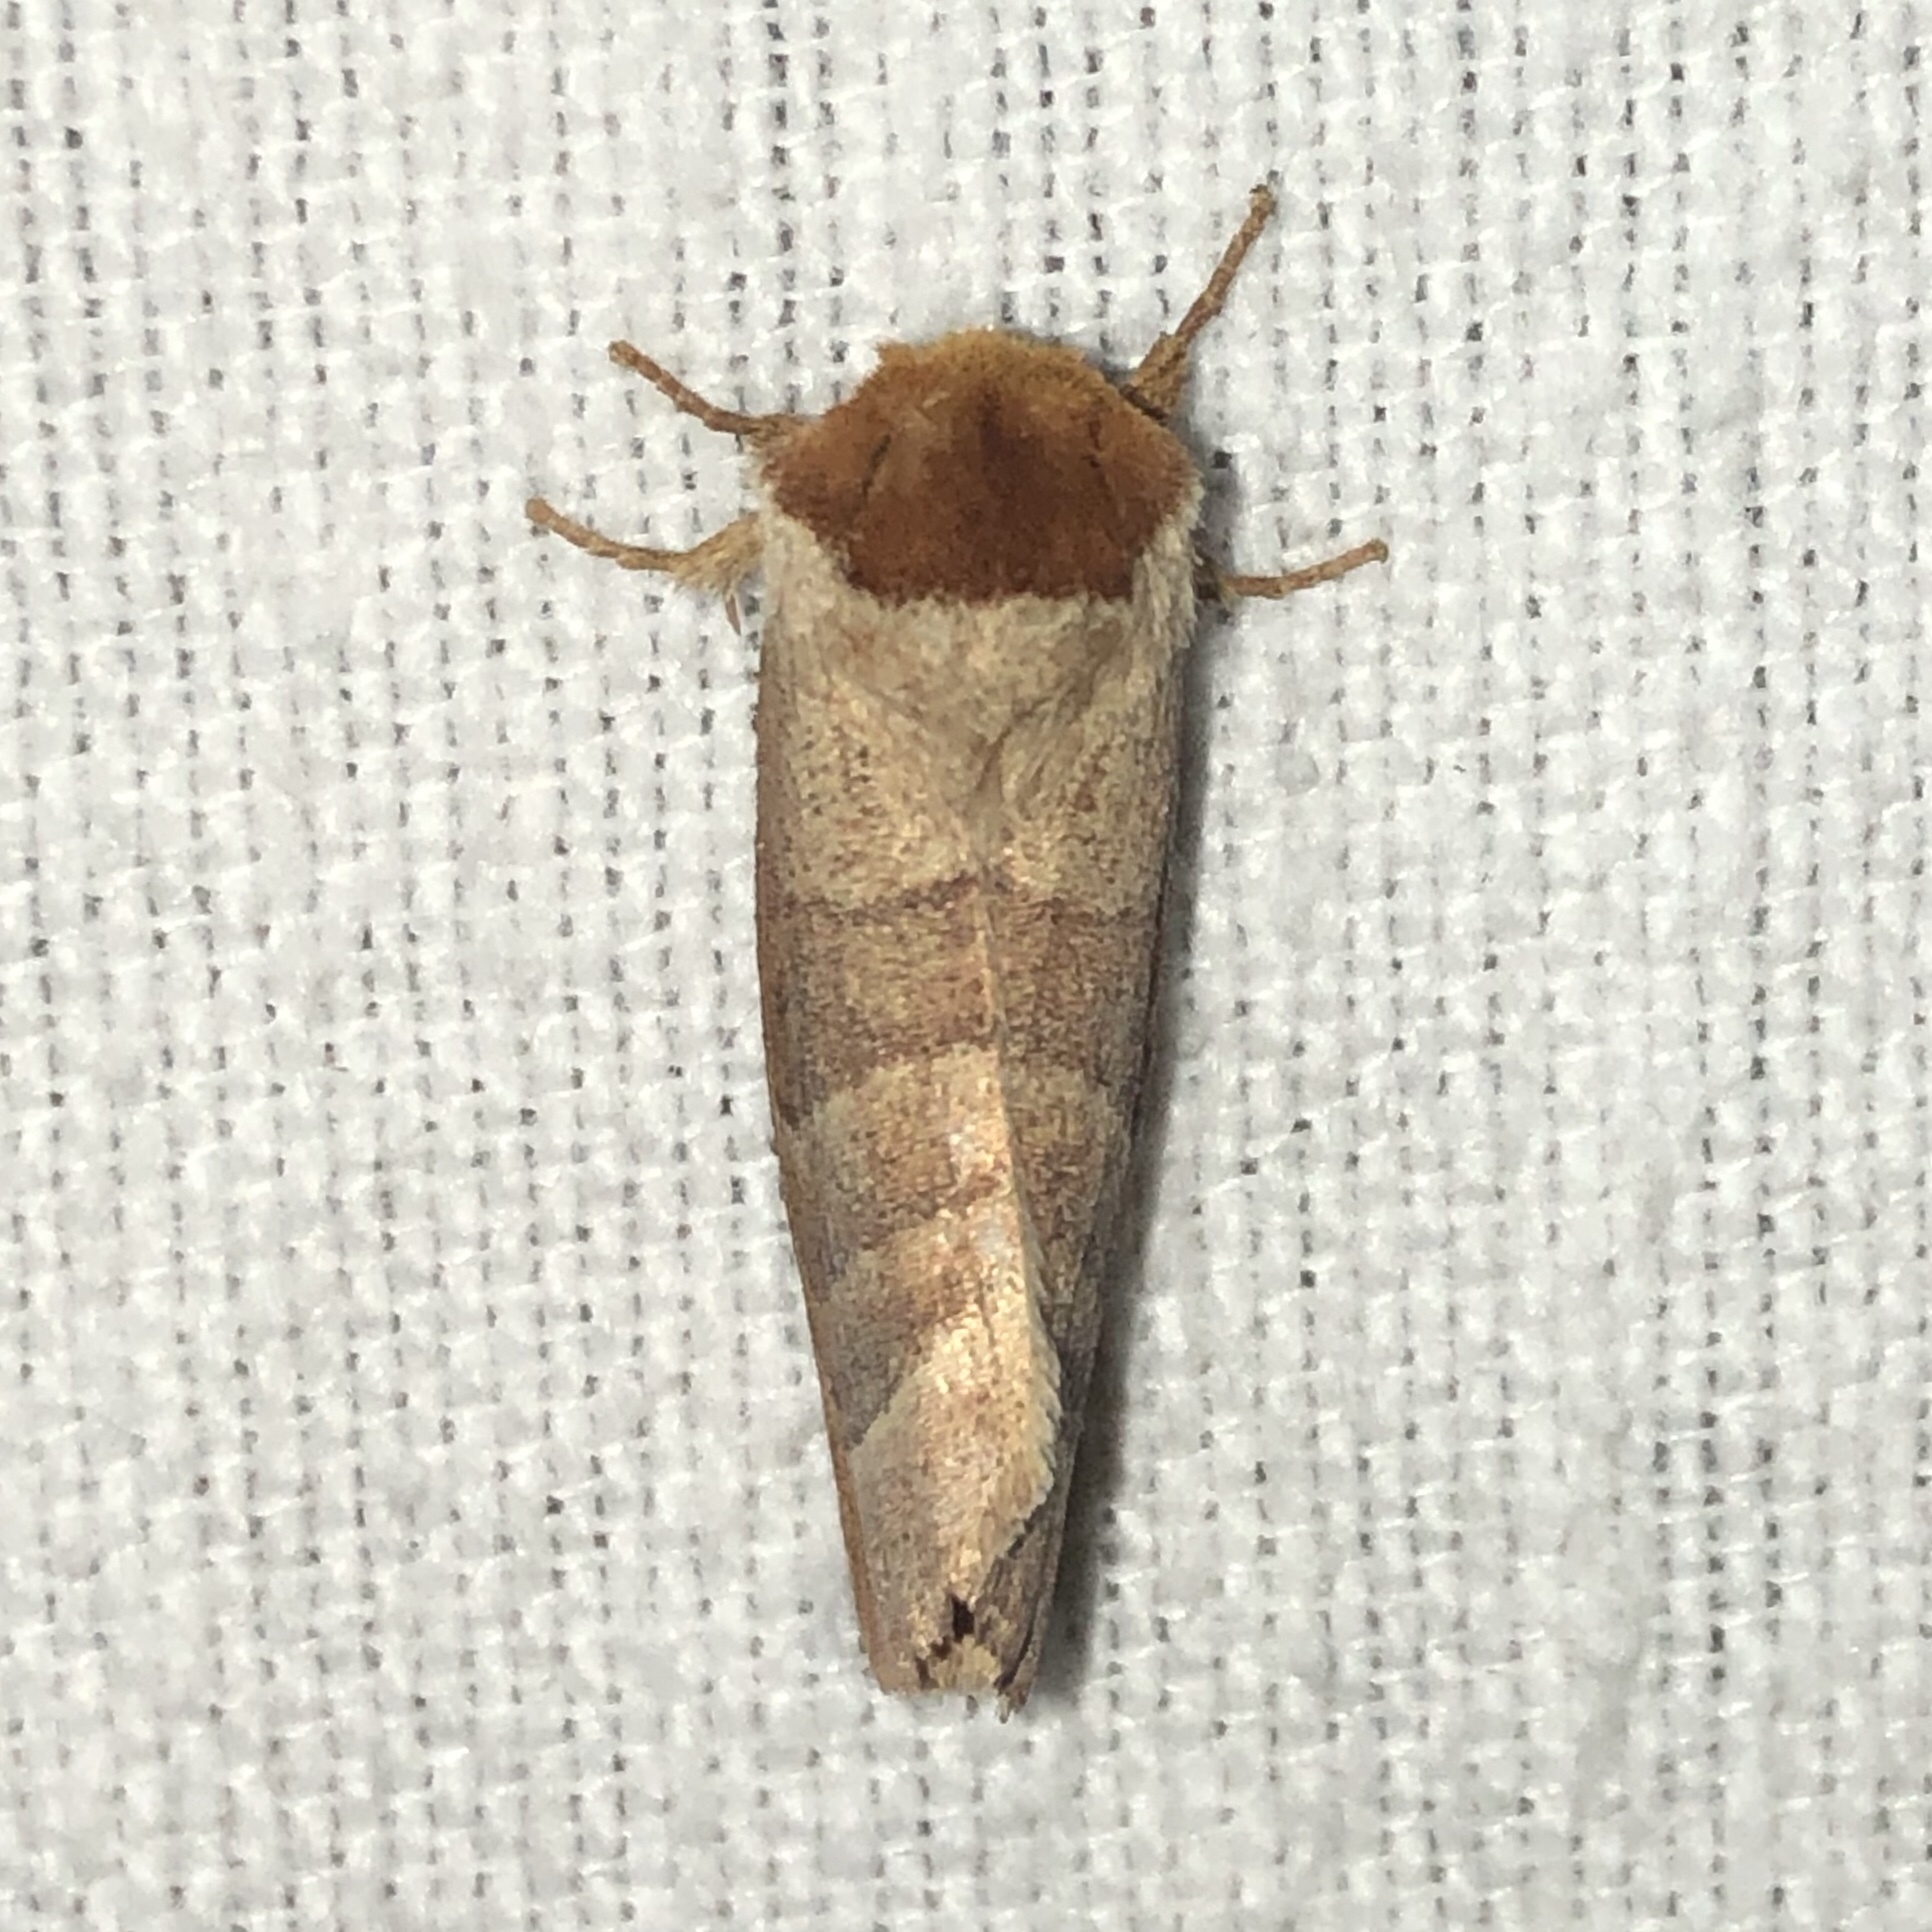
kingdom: Animalia
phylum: Arthropoda
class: Insecta
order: Lepidoptera
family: Notodontidae
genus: Datana
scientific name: Datana integerrima
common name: Walnut caterpillar
